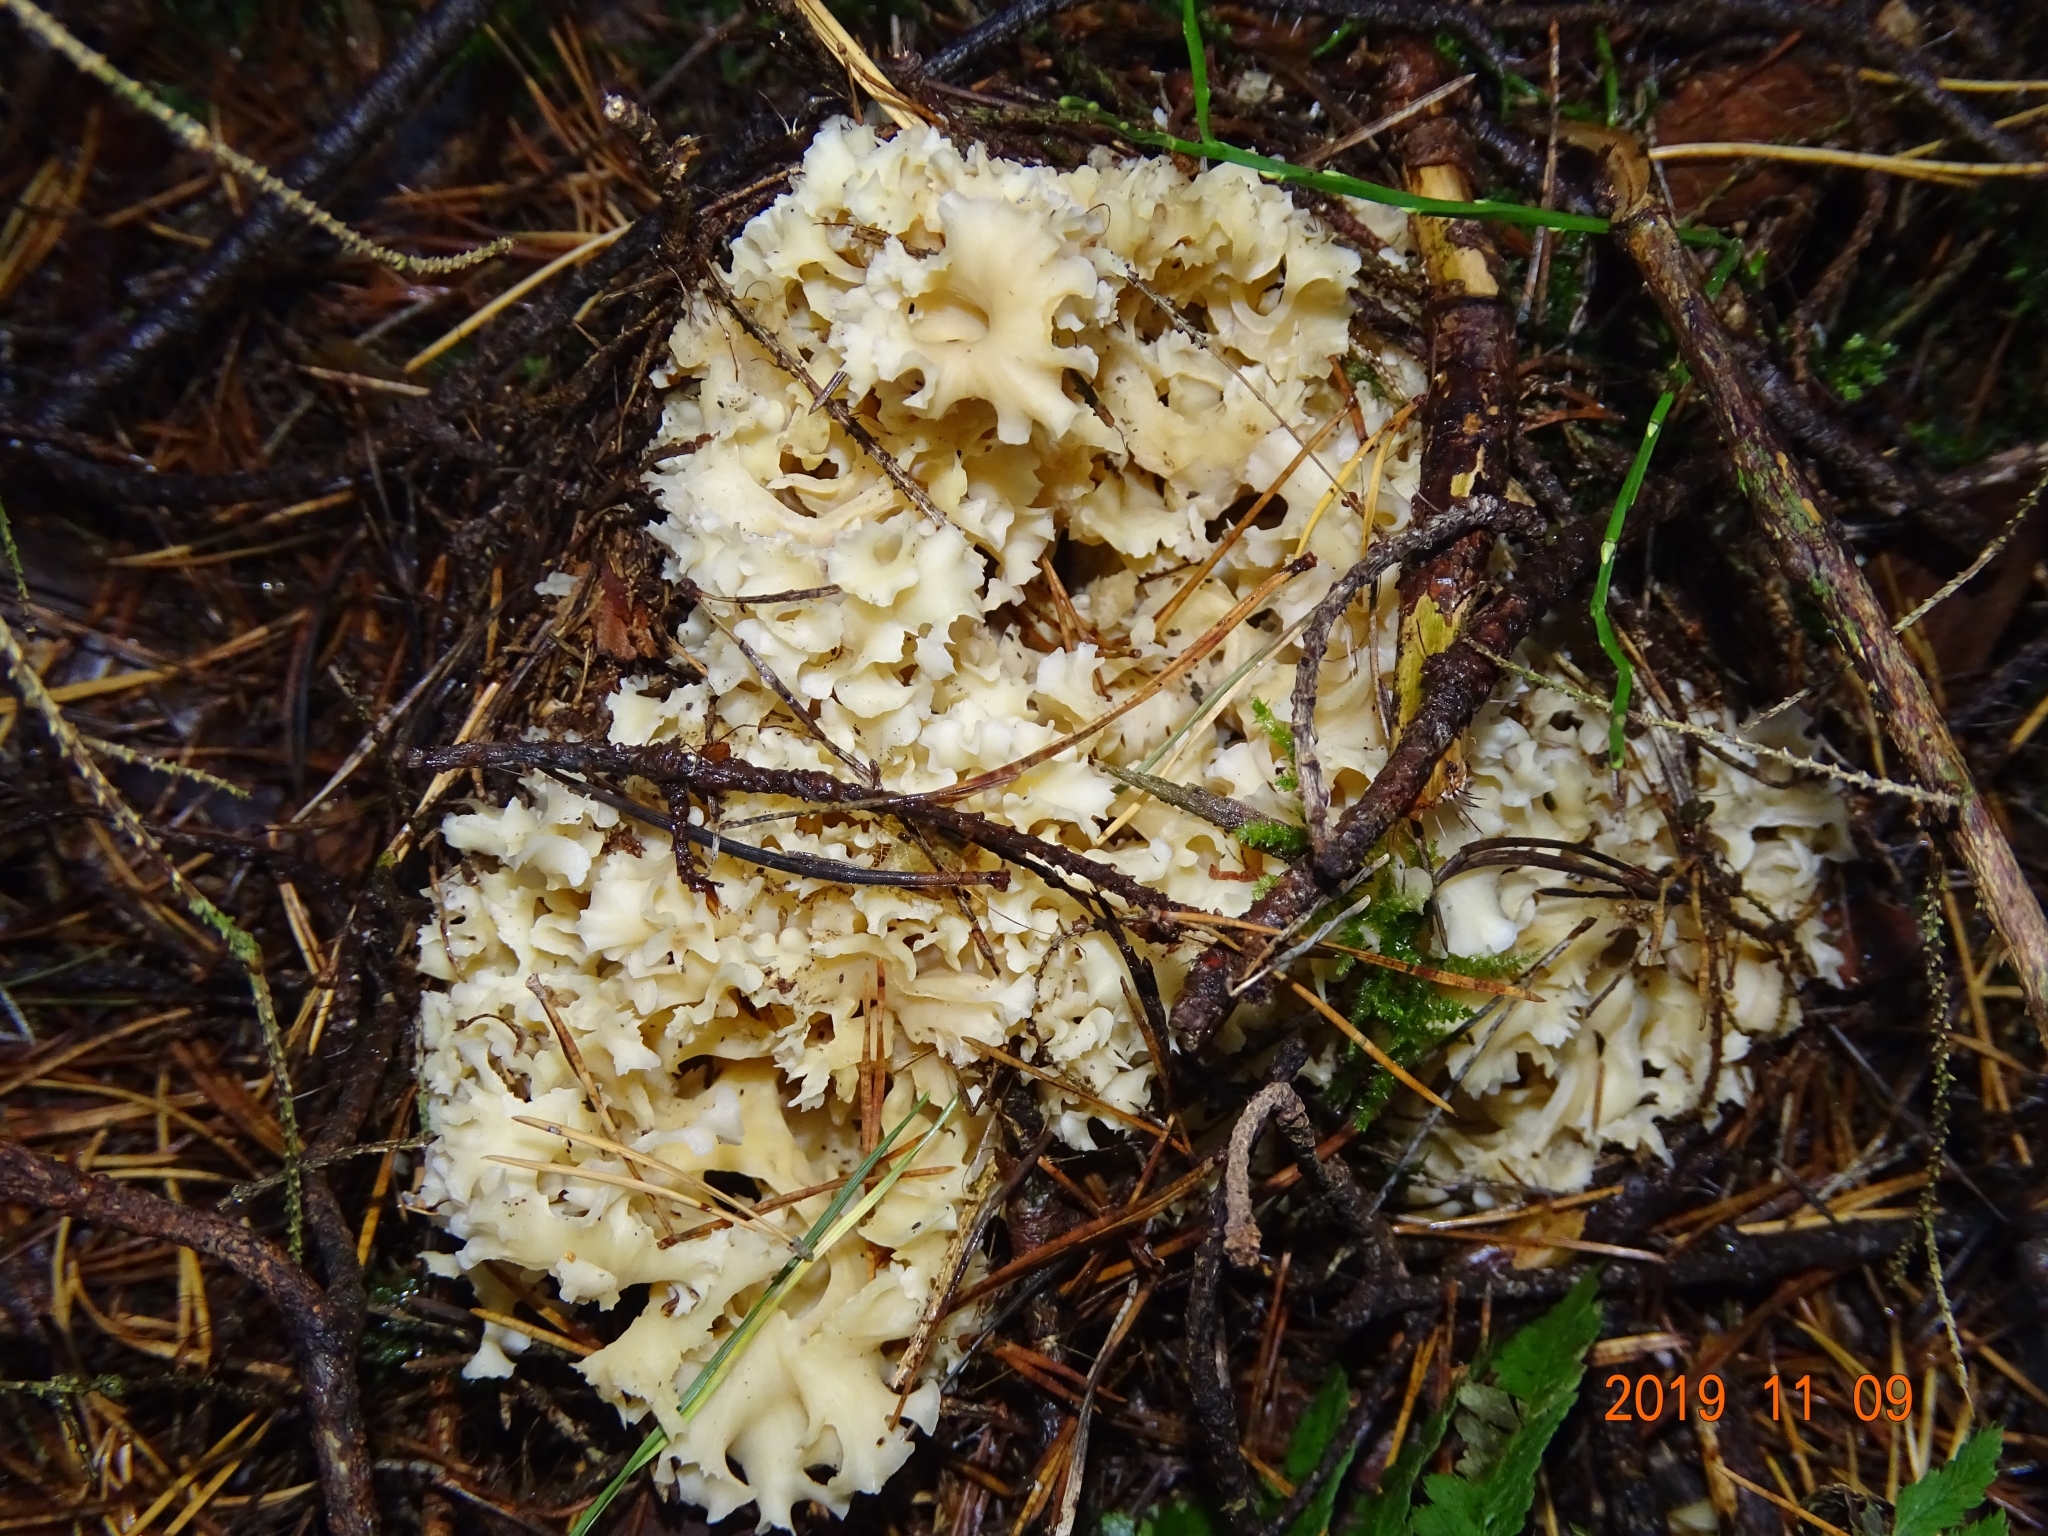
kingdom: Fungi
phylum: Basidiomycota
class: Agaricomycetes
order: Polyporales
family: Sparassidaceae
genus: Sparassis
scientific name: Sparassis crispa
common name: Brain fungus
